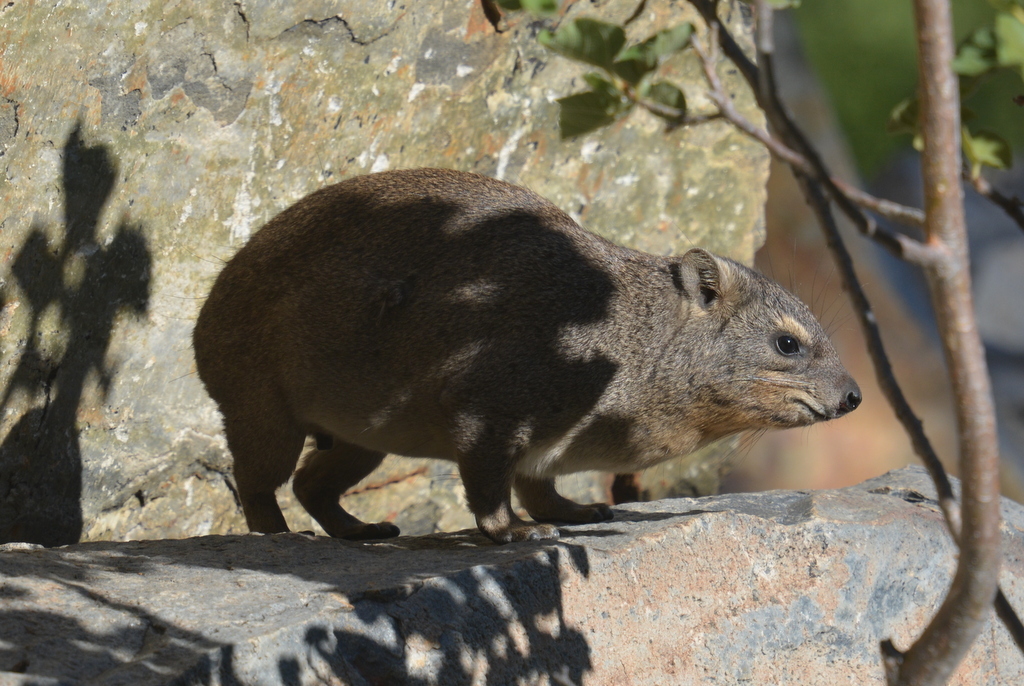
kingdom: Animalia
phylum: Chordata
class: Mammalia
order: Hyracoidea
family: Procaviidae
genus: Procavia
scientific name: Procavia capensis
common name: Rock hyrax
